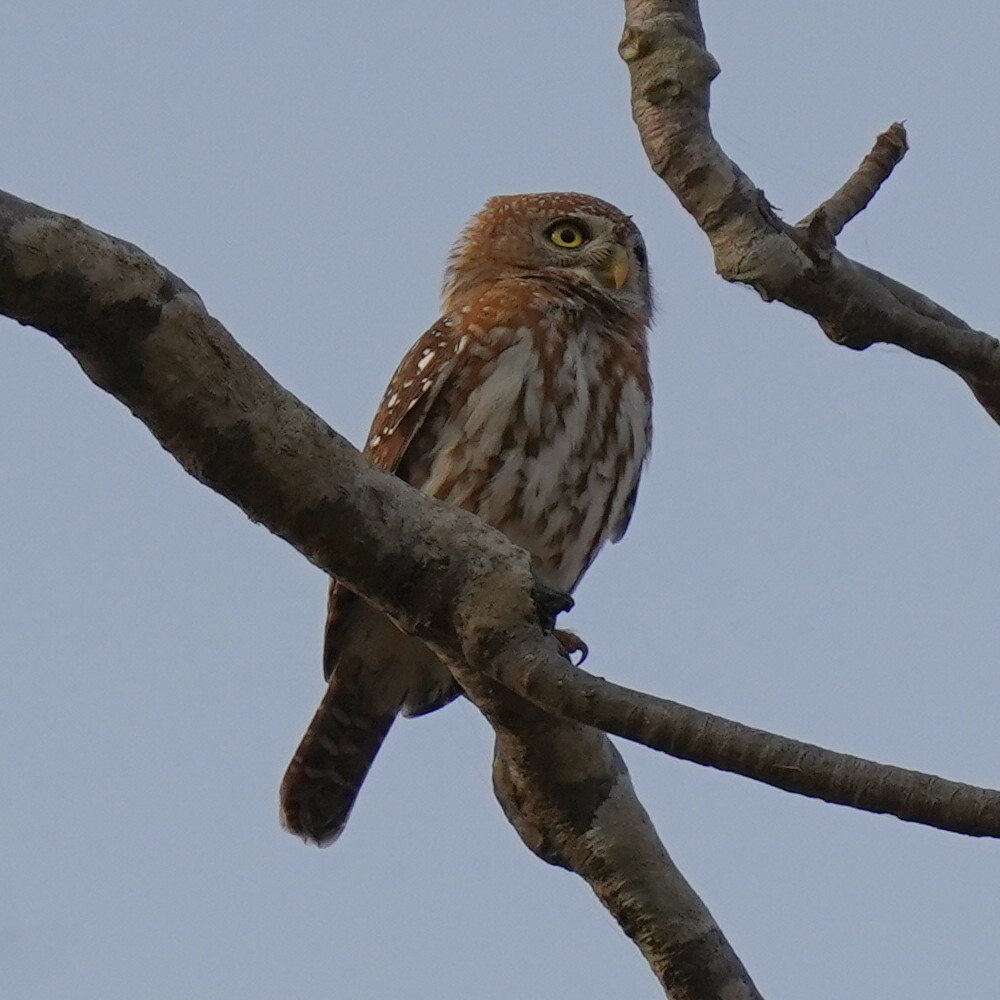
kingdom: Animalia
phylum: Chordata
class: Aves
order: Strigiformes
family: Strigidae
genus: Glaucidium
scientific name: Glaucidium perlatum
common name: Pearl-spotted owlet
